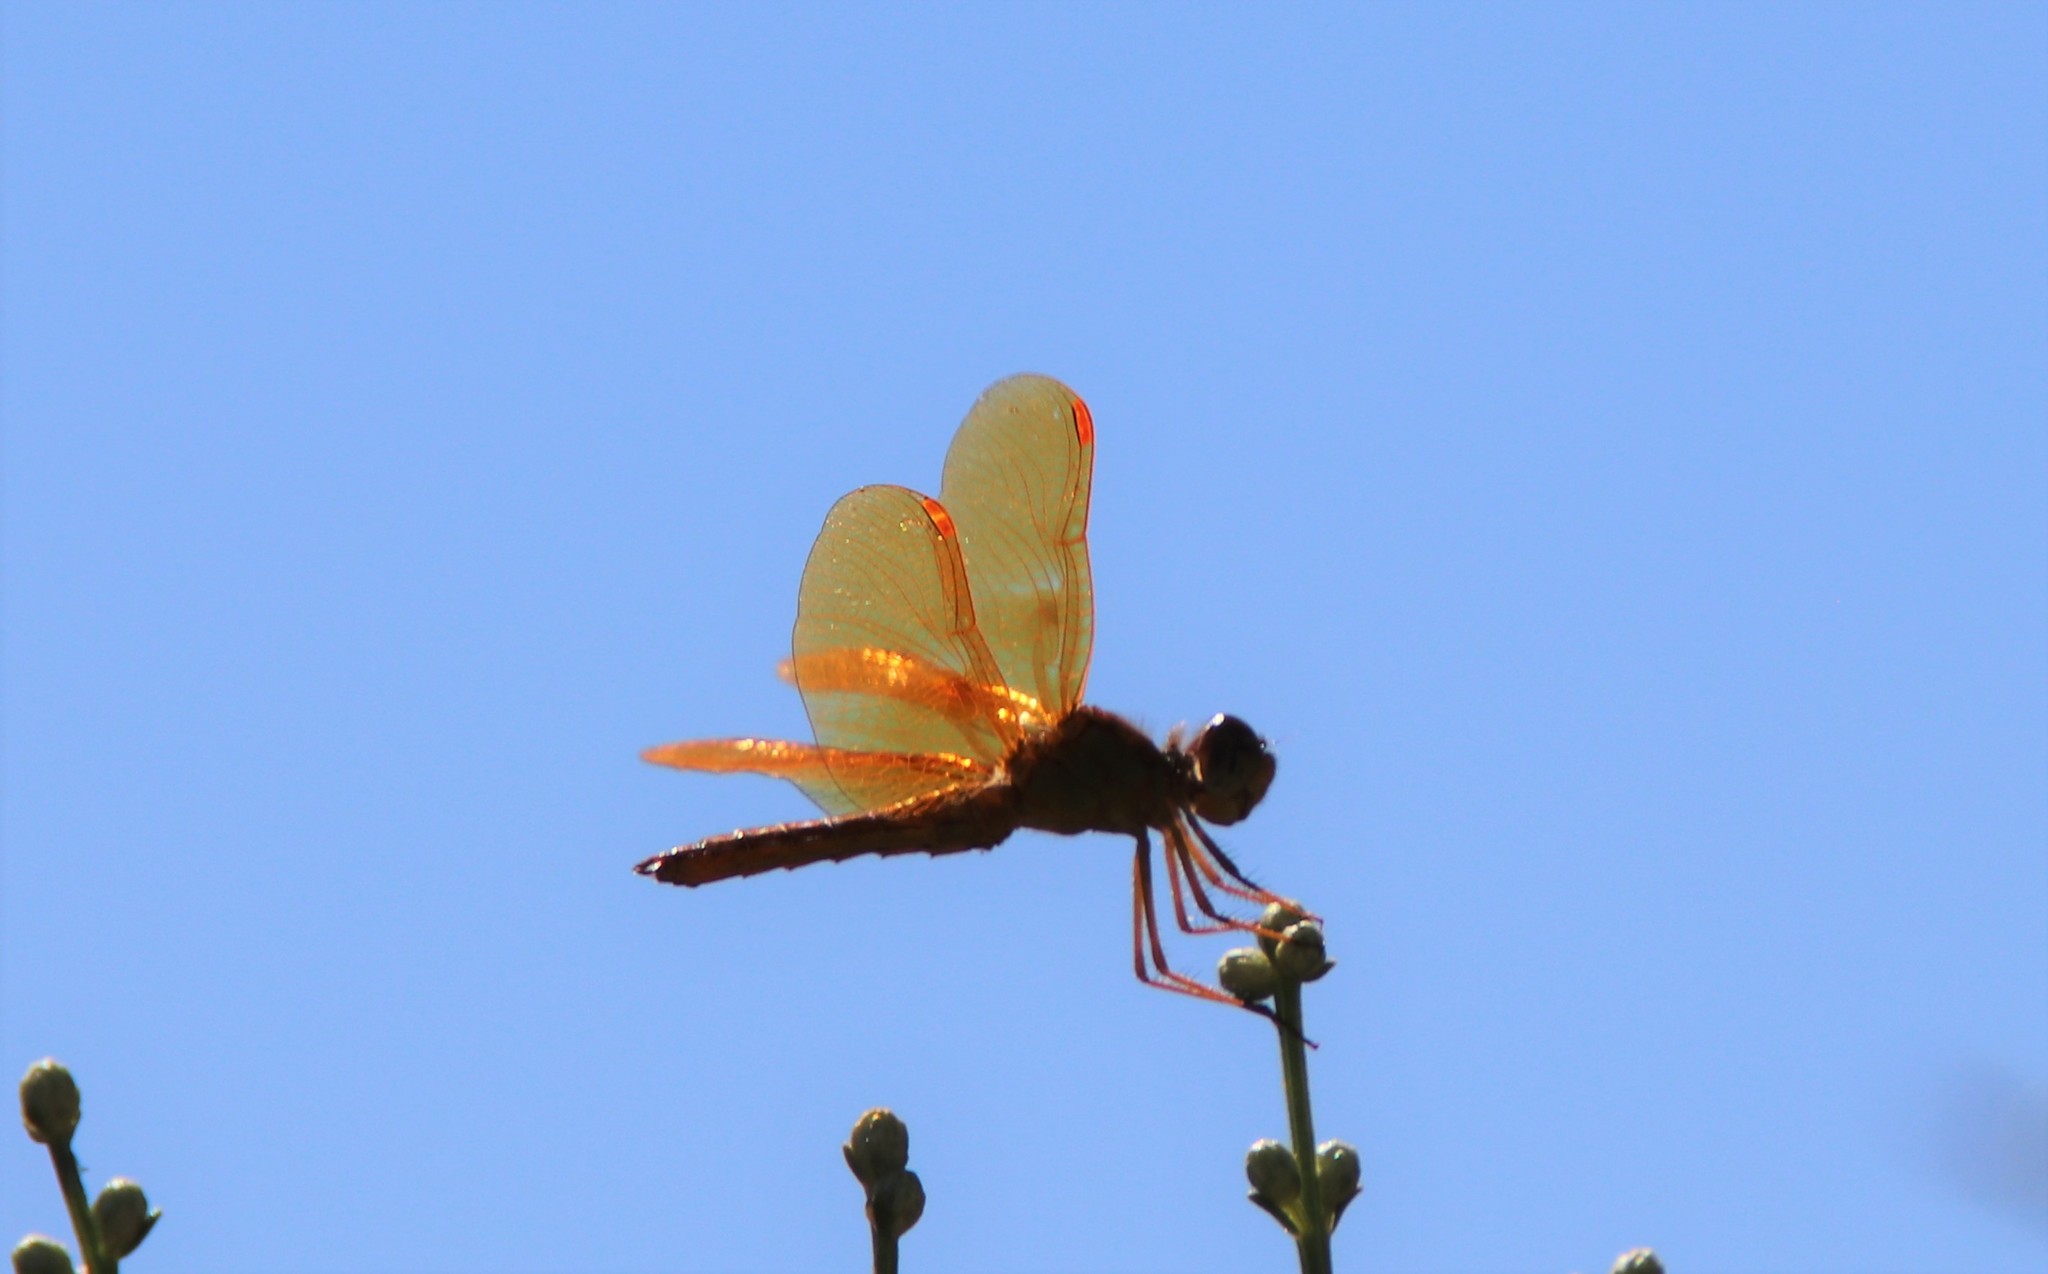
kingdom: Animalia
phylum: Arthropoda
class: Insecta
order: Odonata
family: Libellulidae
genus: Perithemis
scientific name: Perithemis intensa
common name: Mexican amberwing
